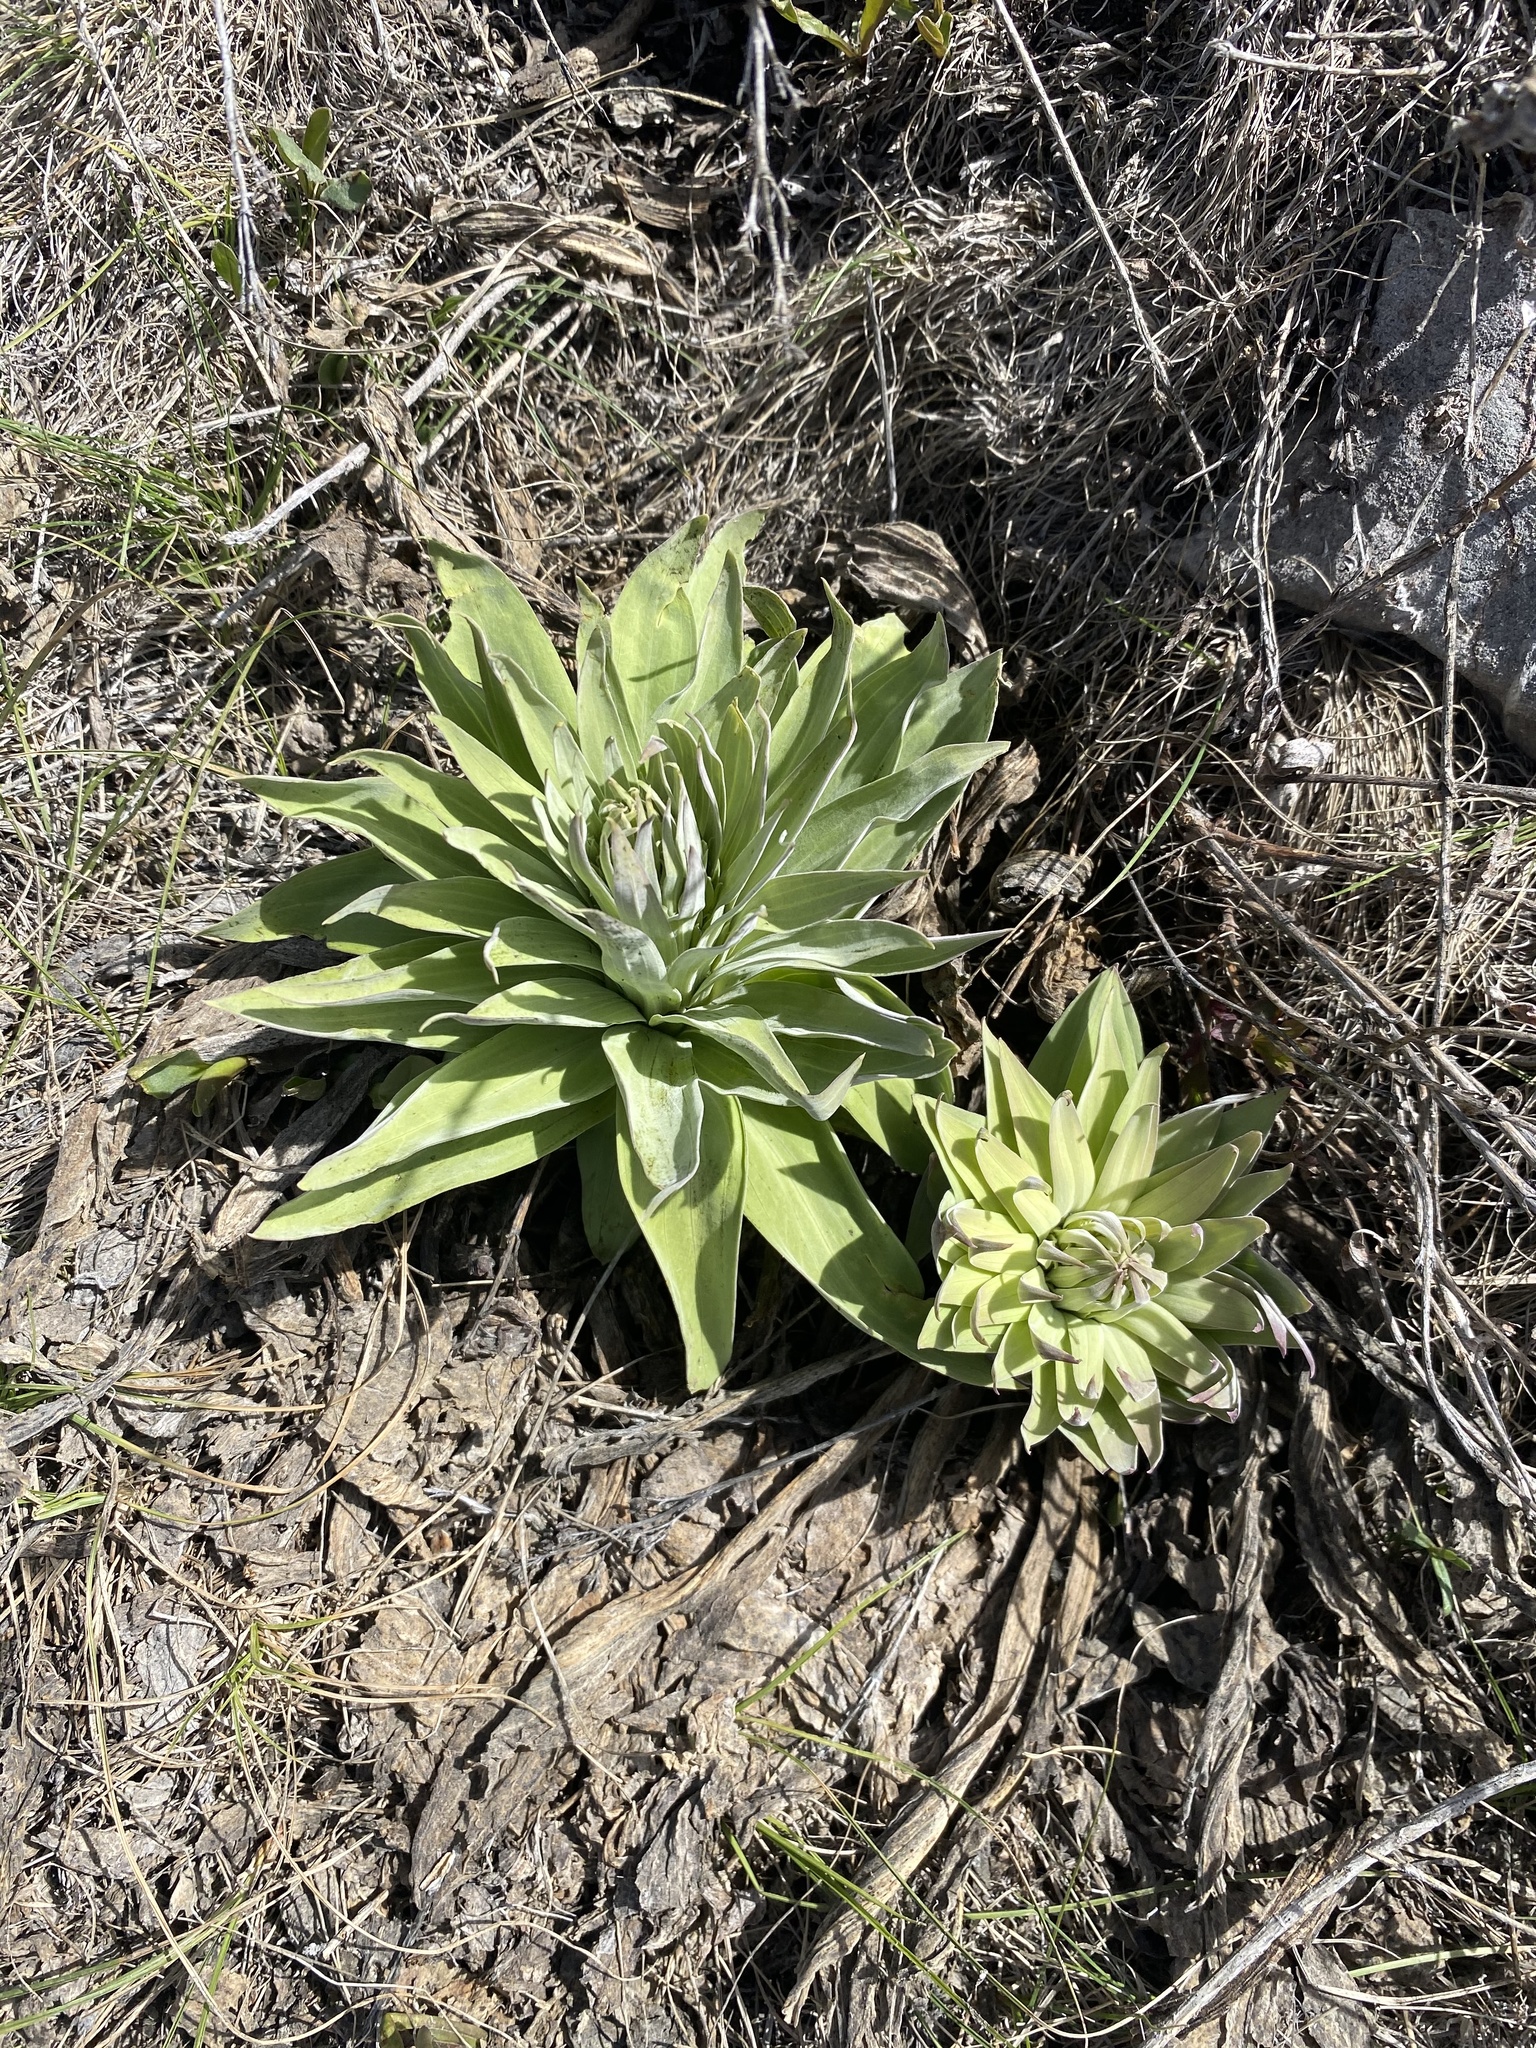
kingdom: Plantae
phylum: Tracheophyta
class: Magnoliopsida
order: Gentianales
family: Gentianaceae
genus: Frasera
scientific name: Frasera speciosa
